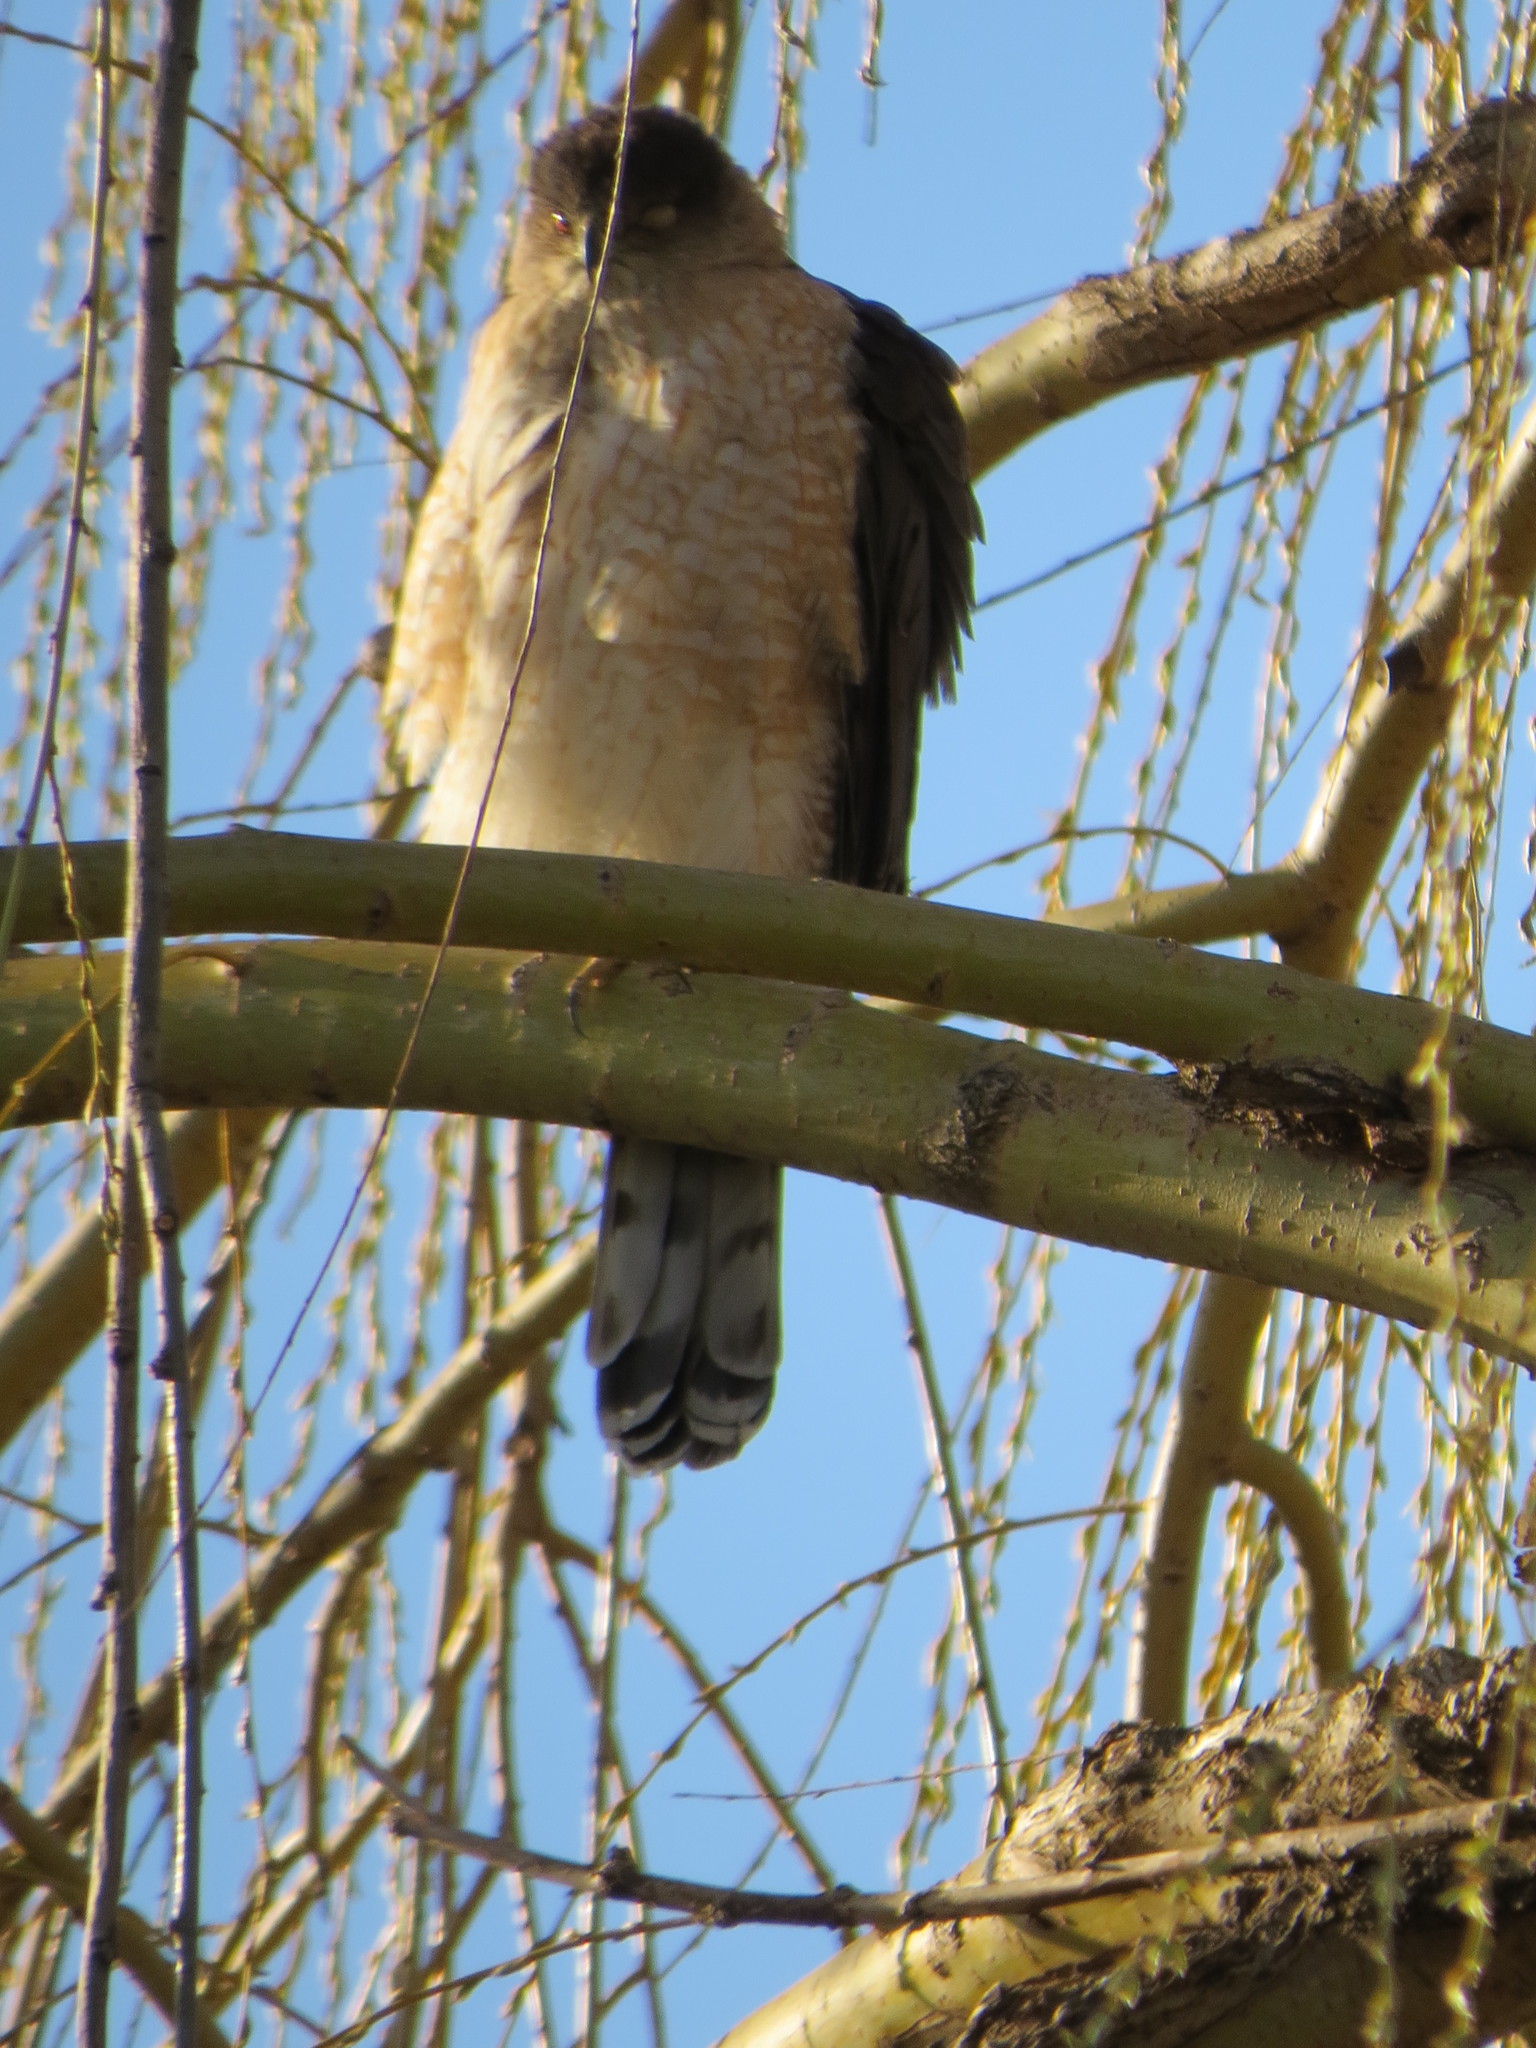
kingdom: Animalia
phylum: Chordata
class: Aves
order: Accipitriformes
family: Accipitridae
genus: Accipiter
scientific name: Accipiter cooperii
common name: Cooper's hawk
